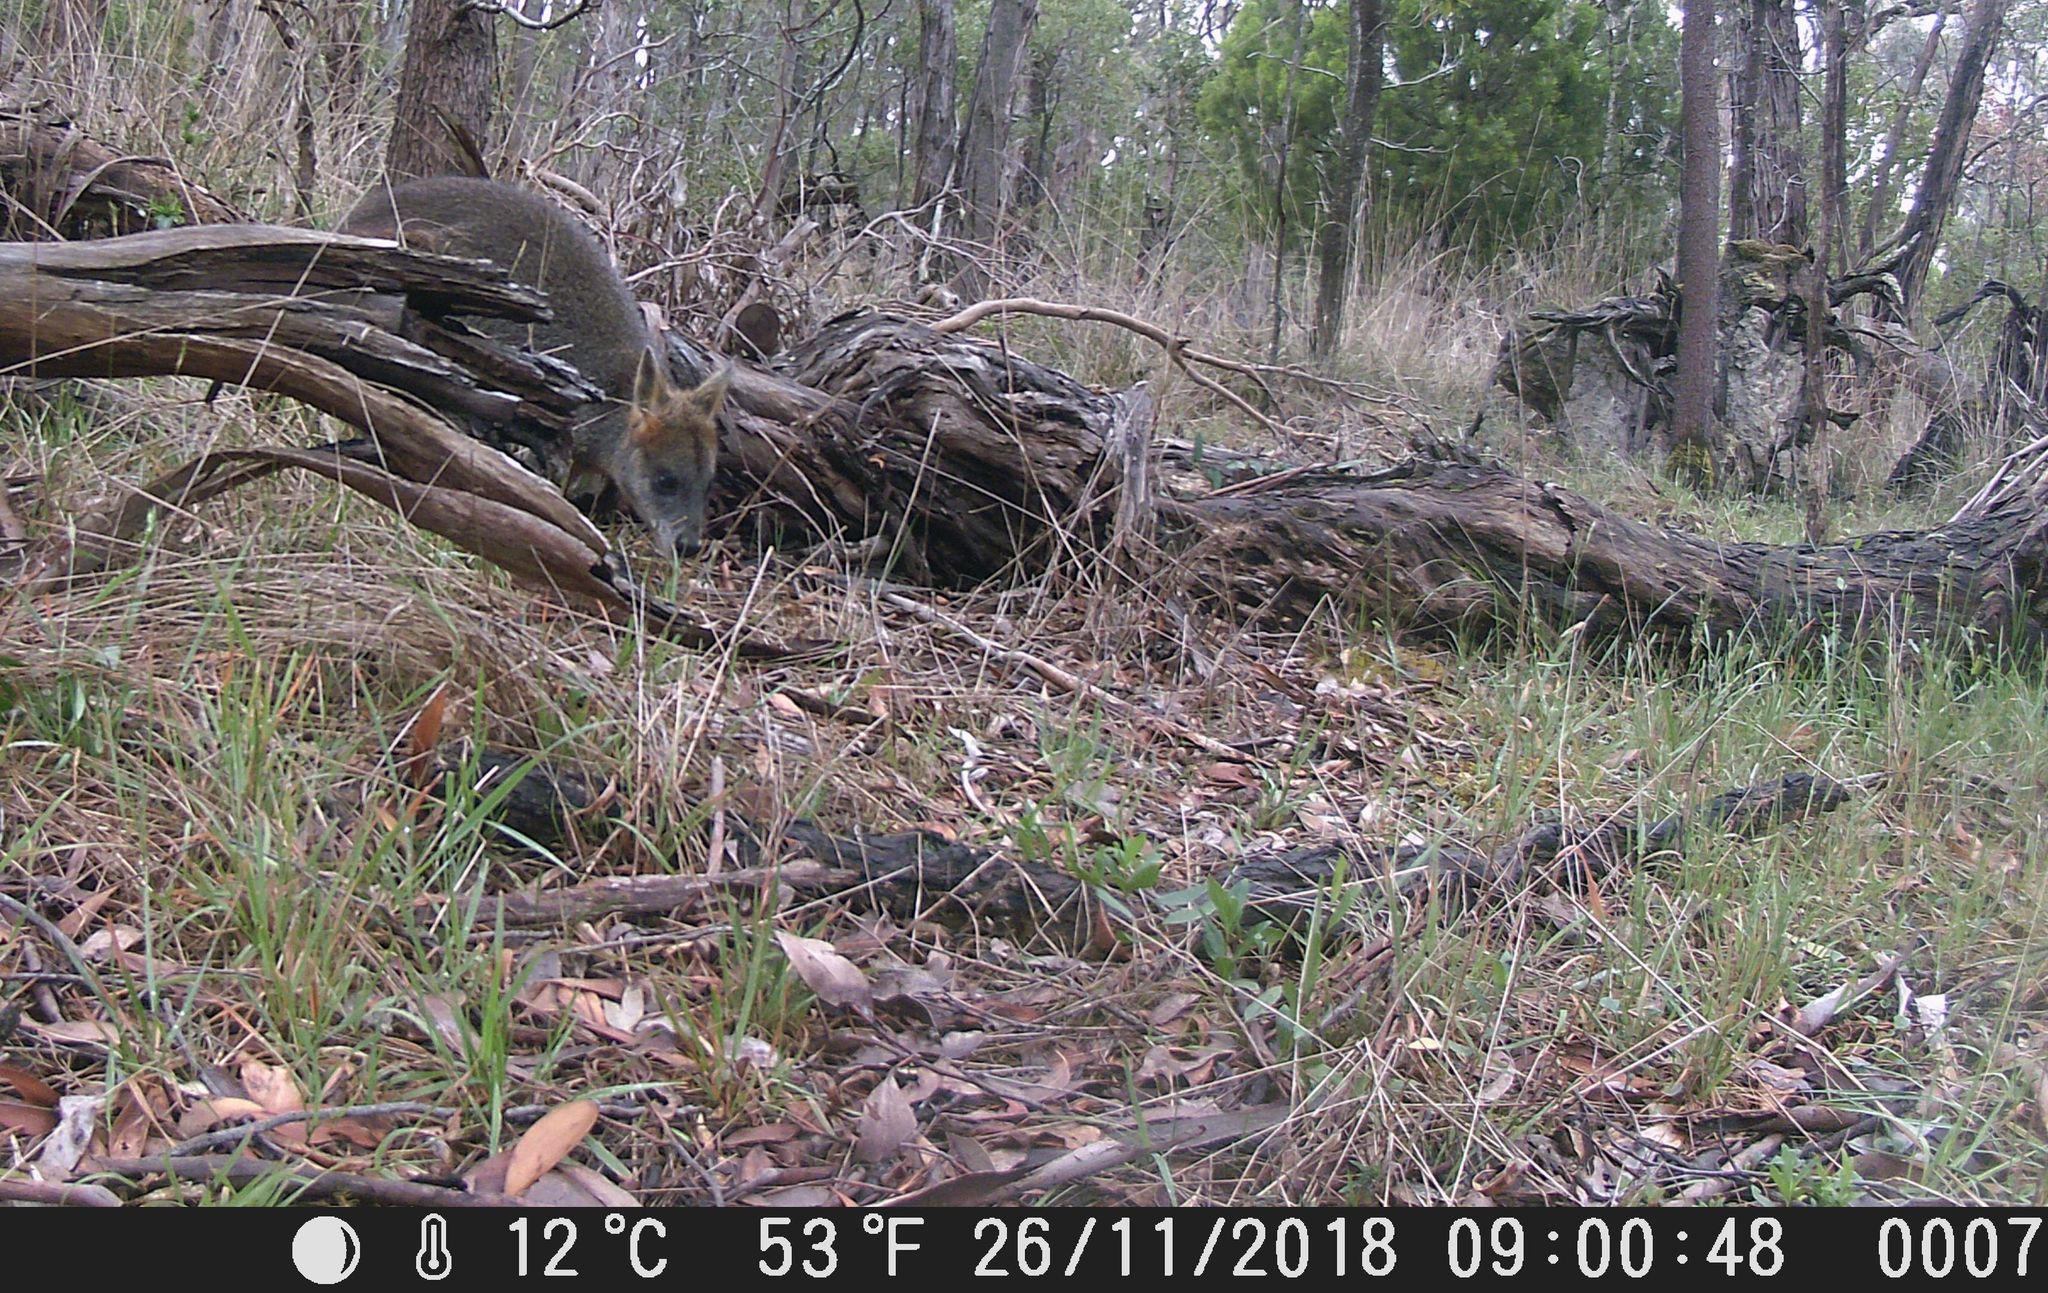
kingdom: Animalia
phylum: Chordata
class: Mammalia
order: Diprotodontia
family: Macropodidae
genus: Wallabia
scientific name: Wallabia bicolor
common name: Swamp wallaby
